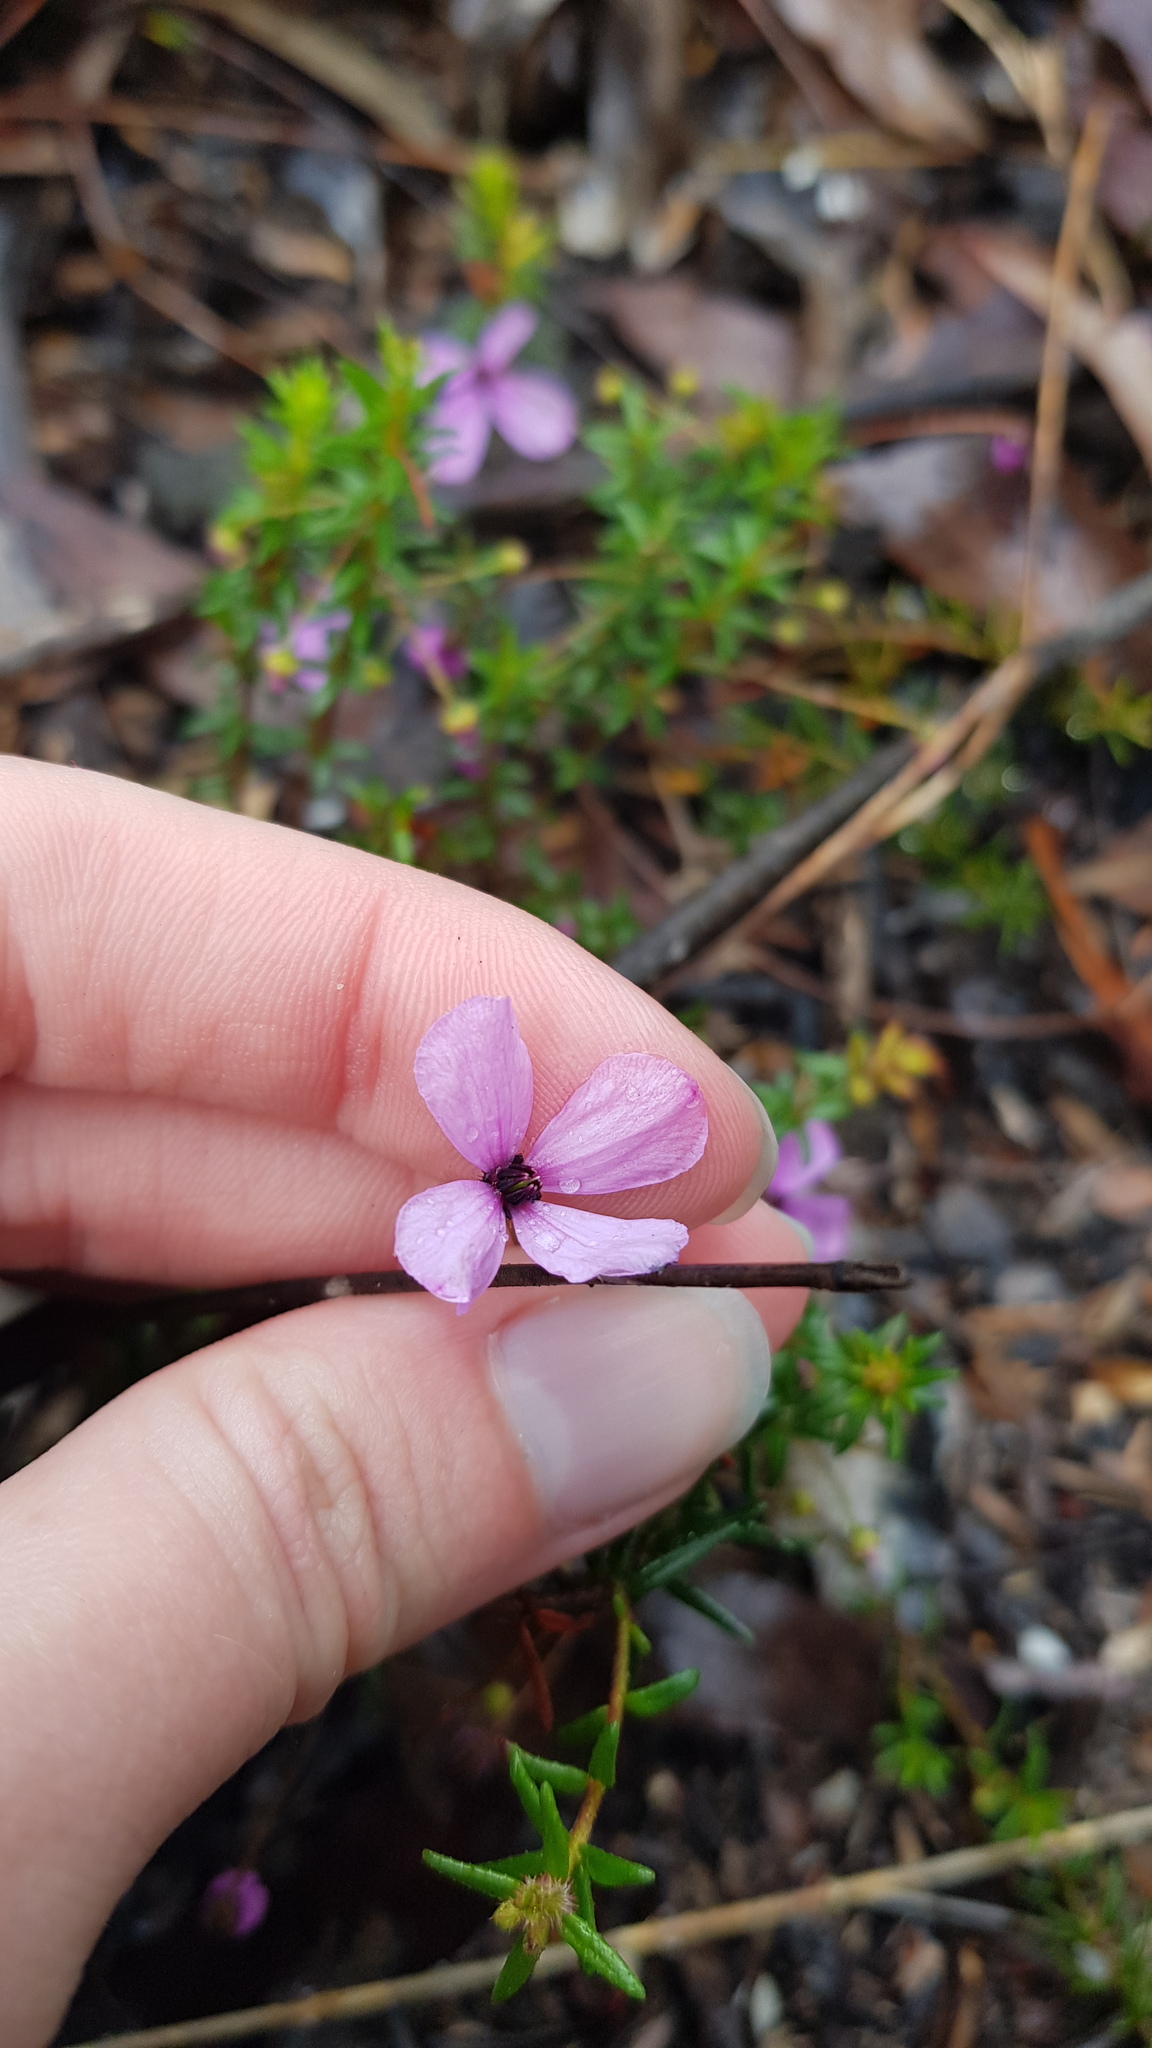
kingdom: Plantae
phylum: Tracheophyta
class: Magnoliopsida
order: Oxalidales
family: Elaeocarpaceae
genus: Tetratheca
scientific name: Tetratheca ericifolia
